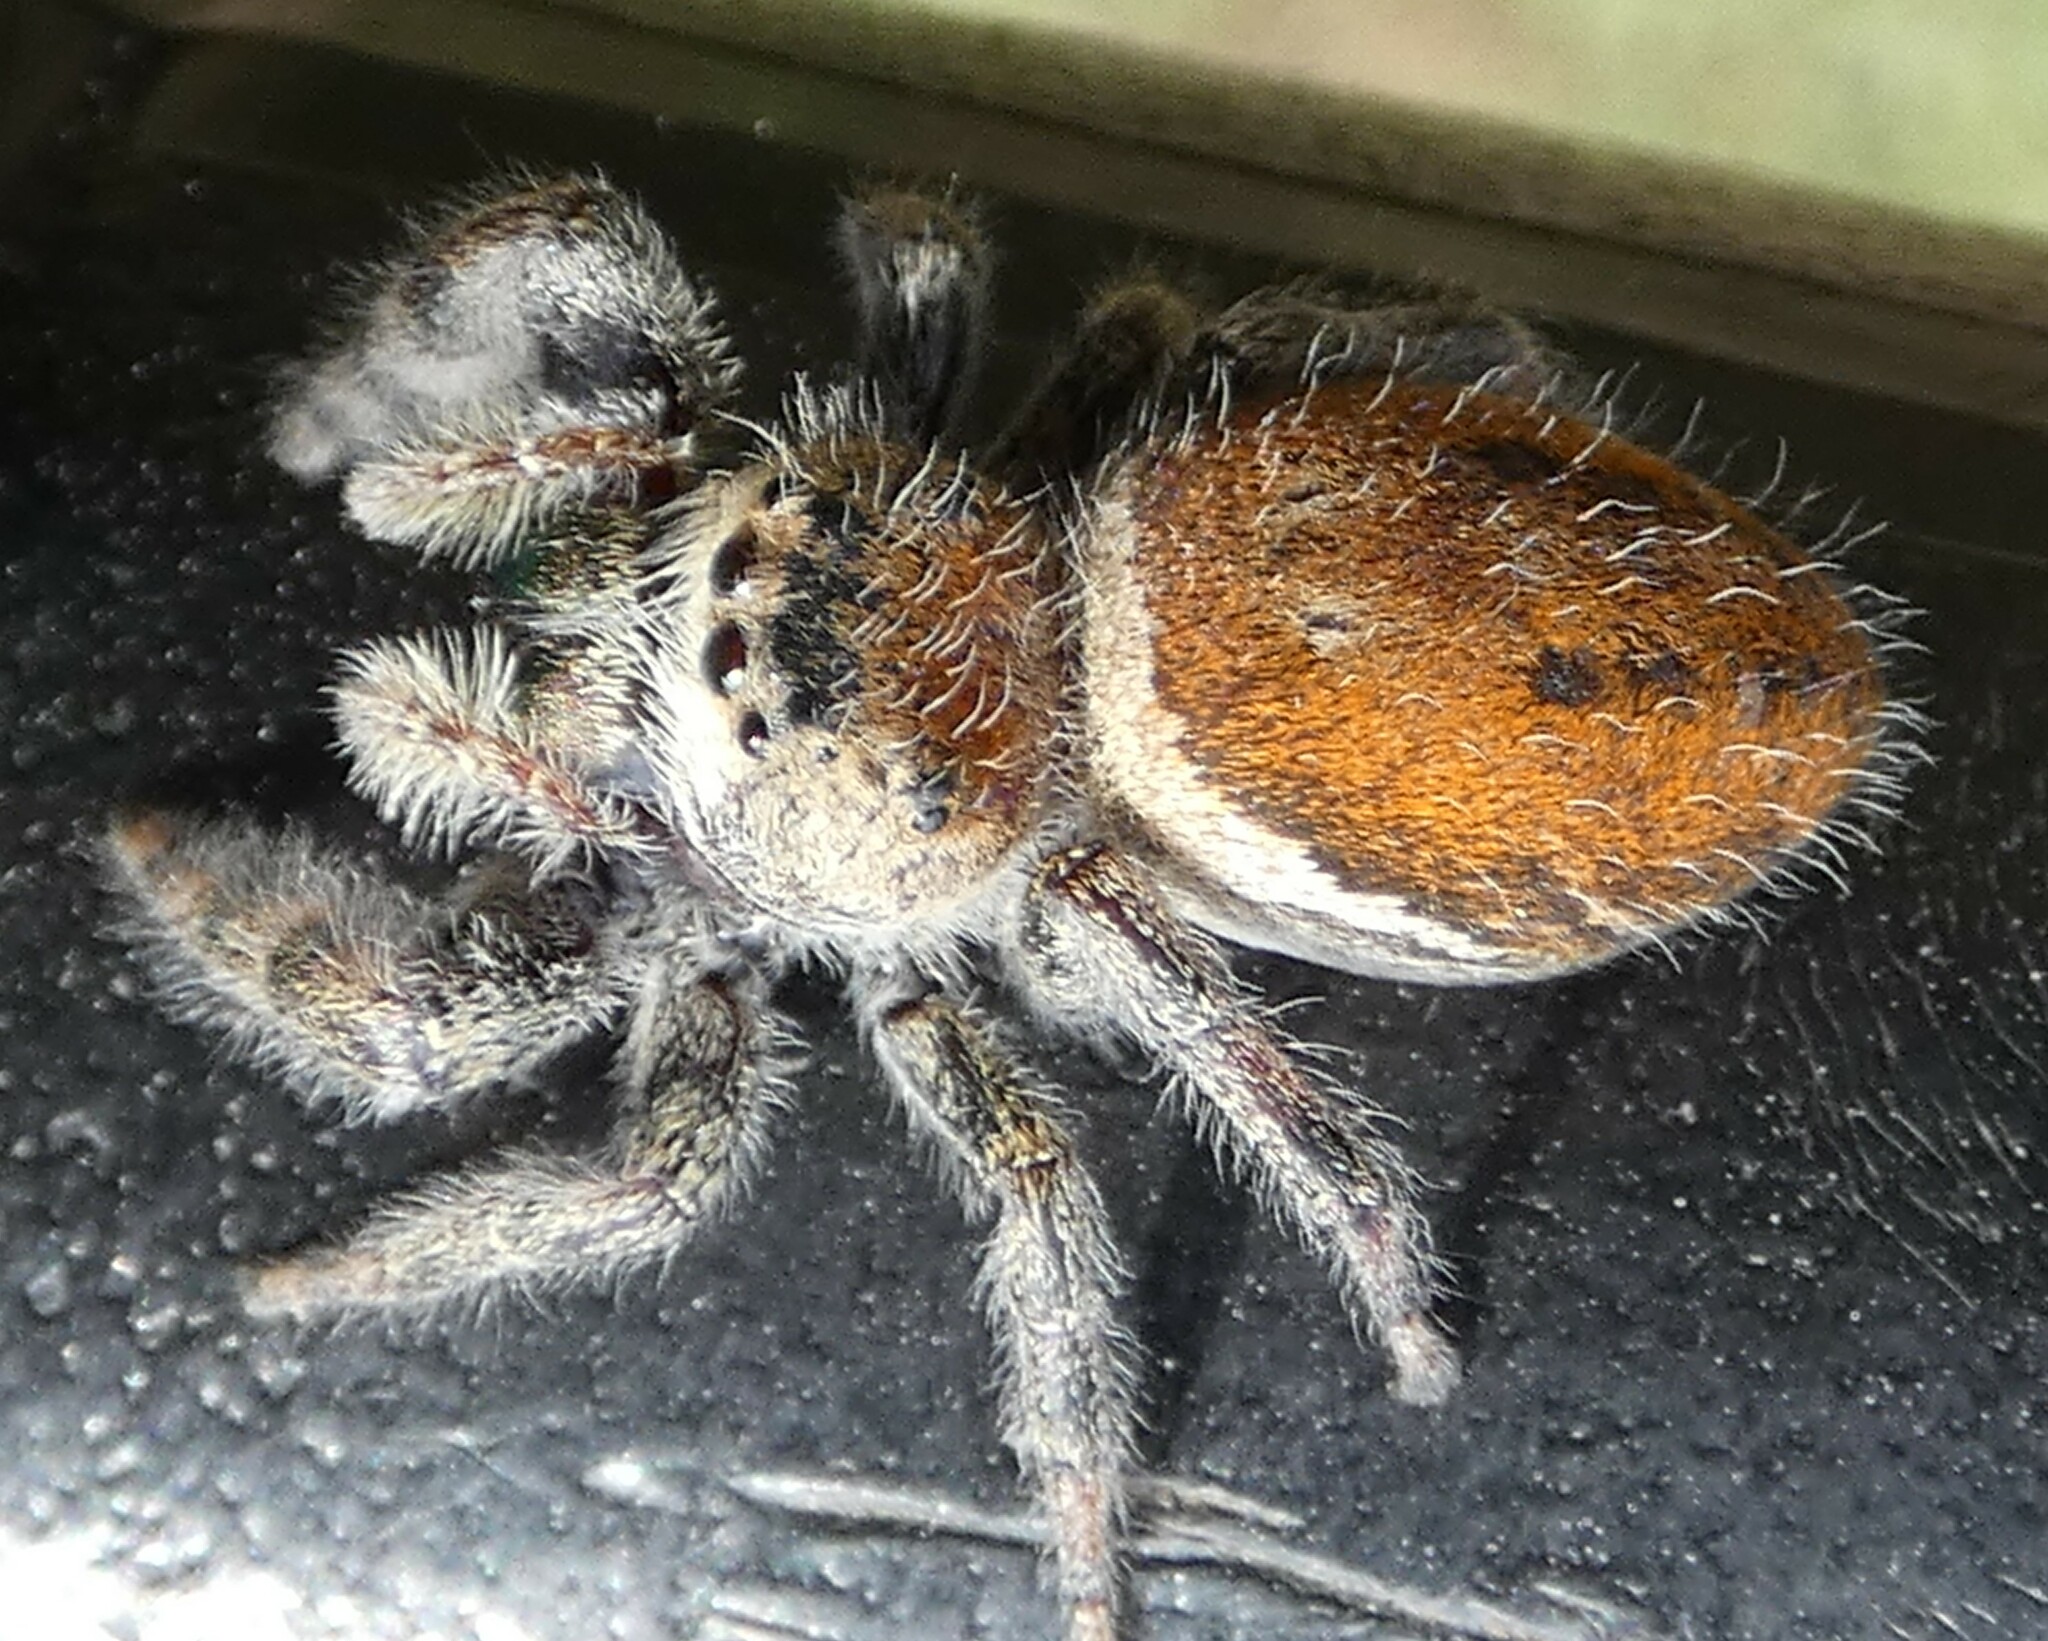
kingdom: Animalia
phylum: Arthropoda
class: Arachnida
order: Araneae
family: Salticidae
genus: Phidippus
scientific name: Phidippus clarus
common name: Brilliant jumping spider
